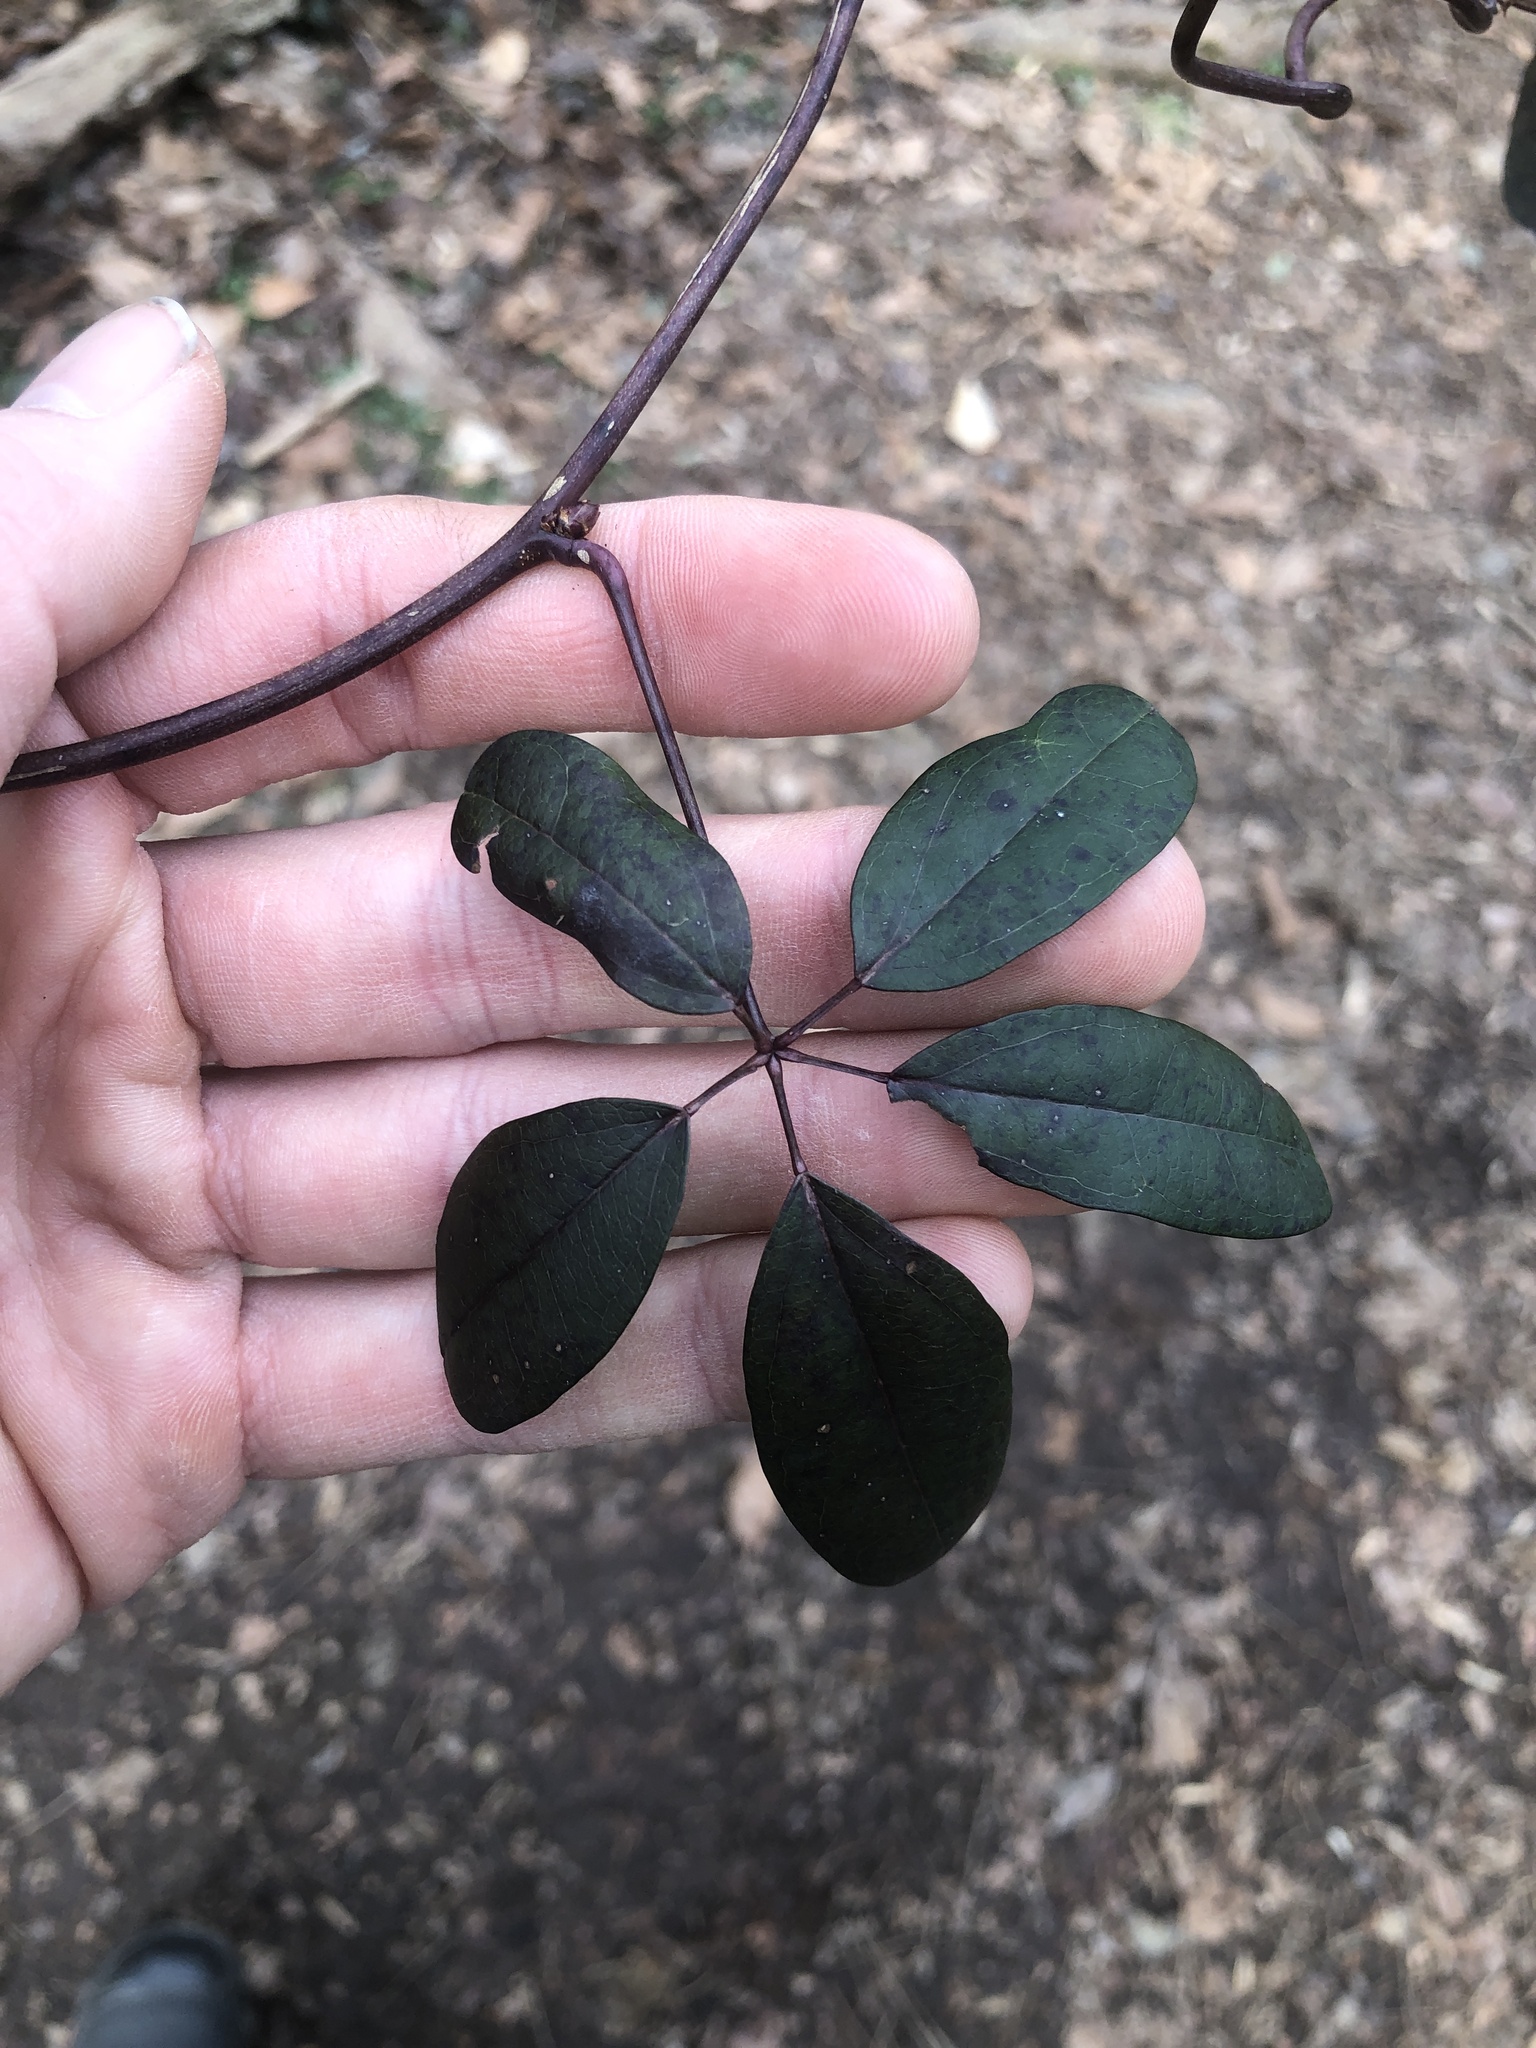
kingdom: Plantae
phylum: Tracheophyta
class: Magnoliopsida
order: Ranunculales
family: Lardizabalaceae
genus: Akebia
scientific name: Akebia quinata
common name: Five-leaf akebia
